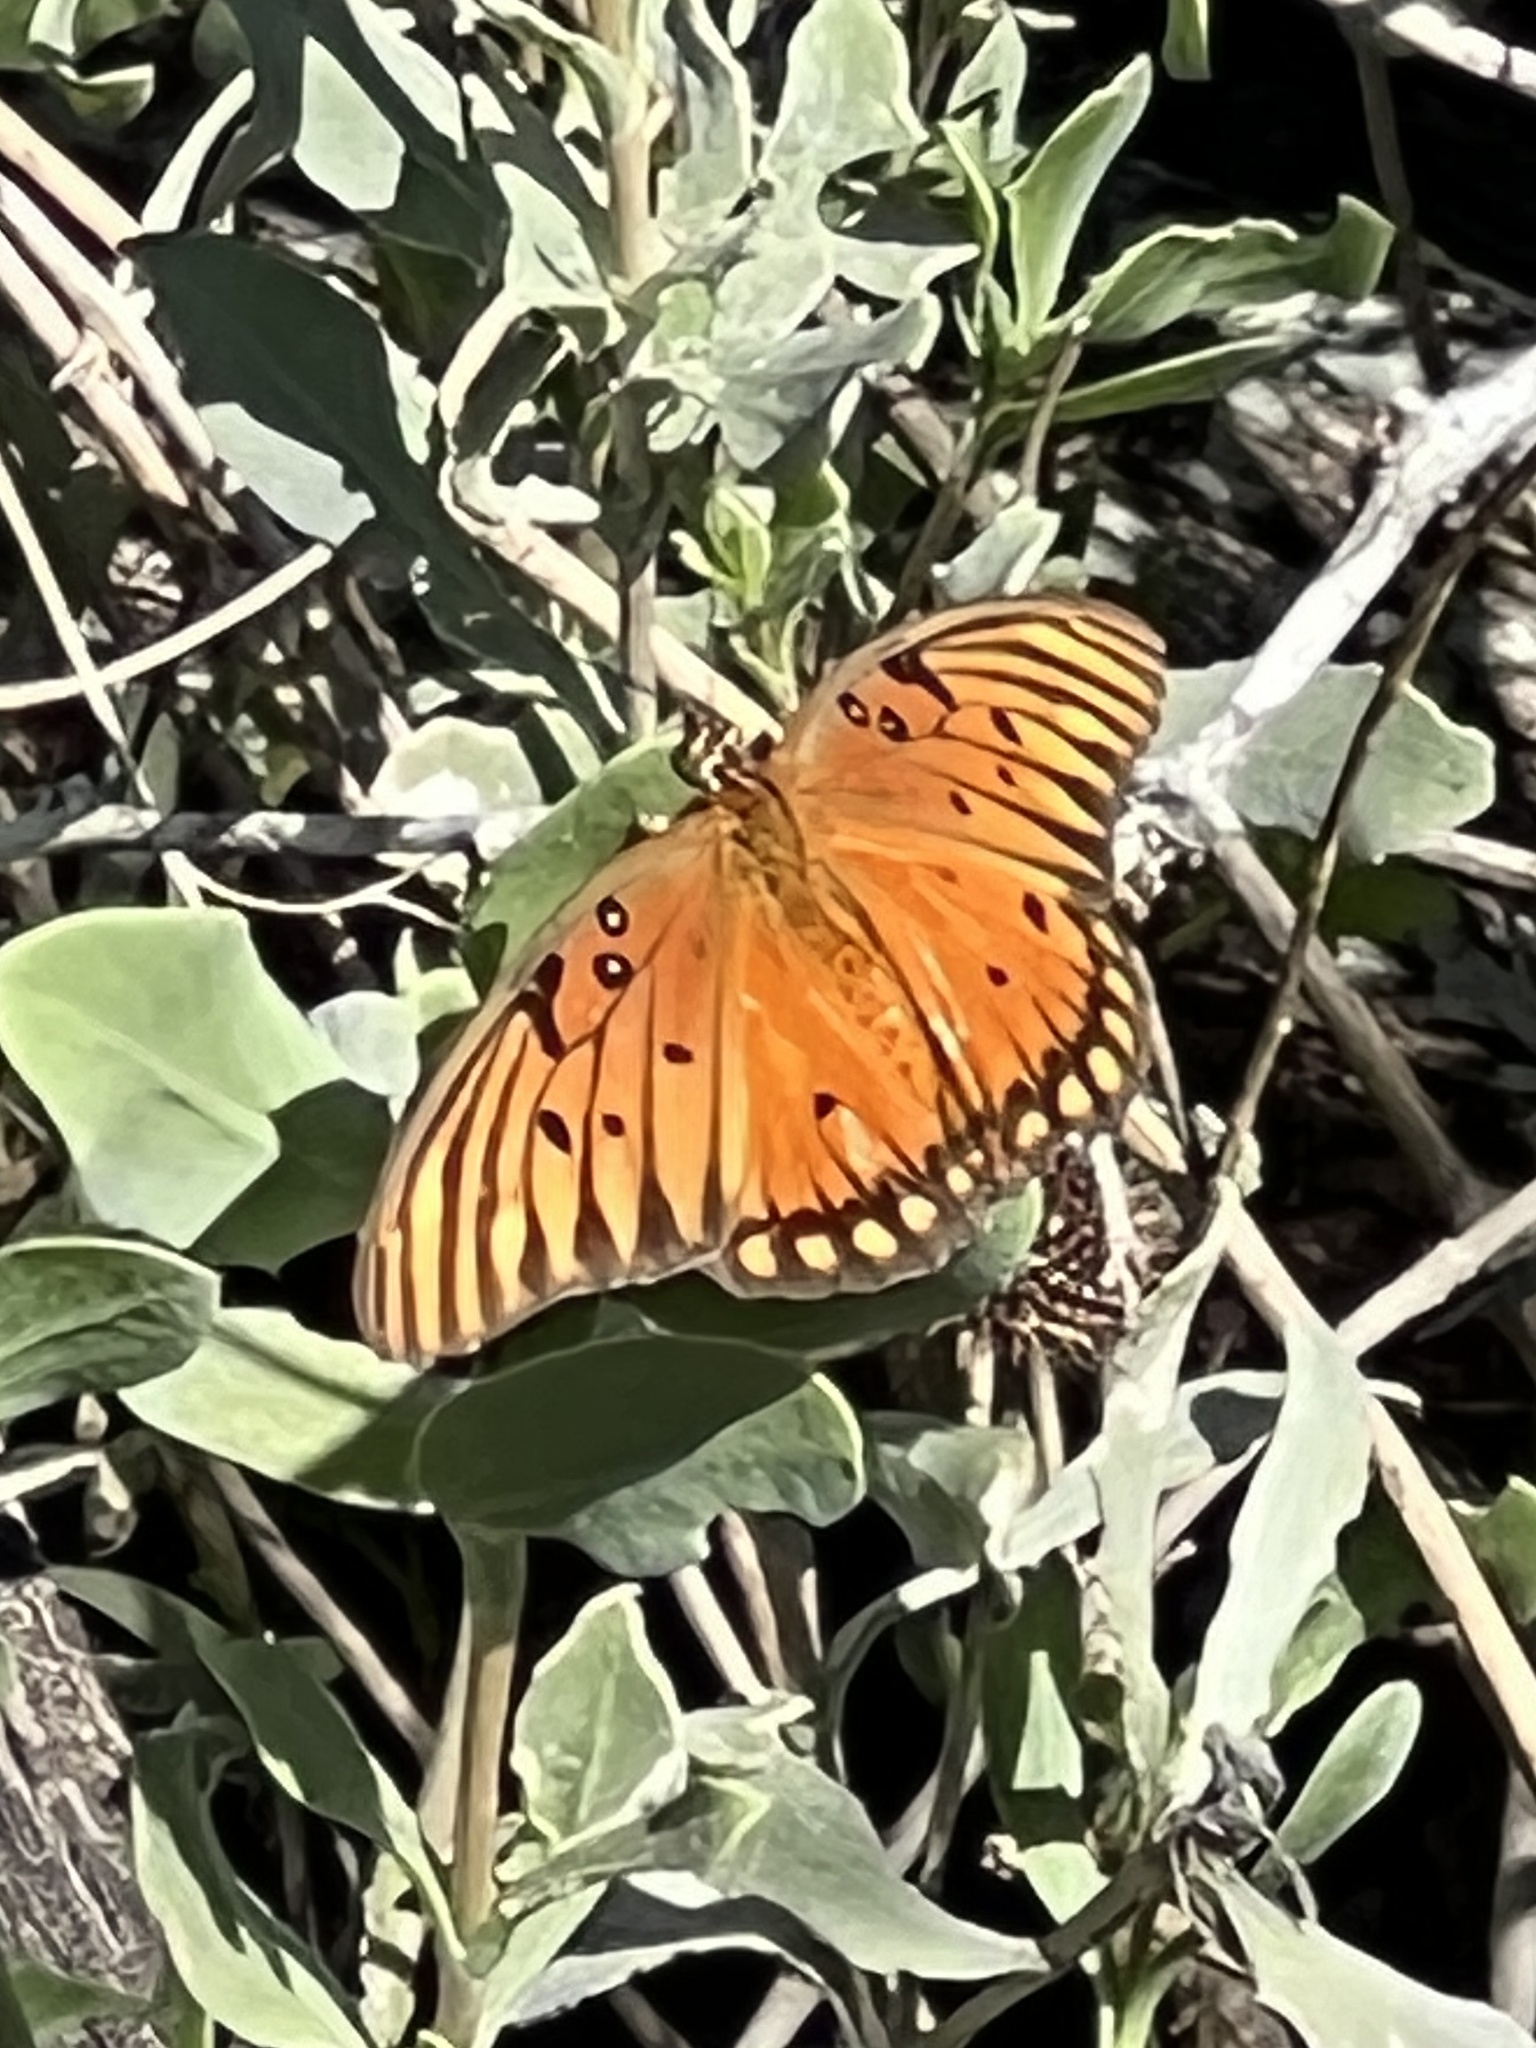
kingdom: Animalia
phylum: Arthropoda
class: Insecta
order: Lepidoptera
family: Nymphalidae
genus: Dione
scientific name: Dione vanillae
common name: Gulf fritillary
